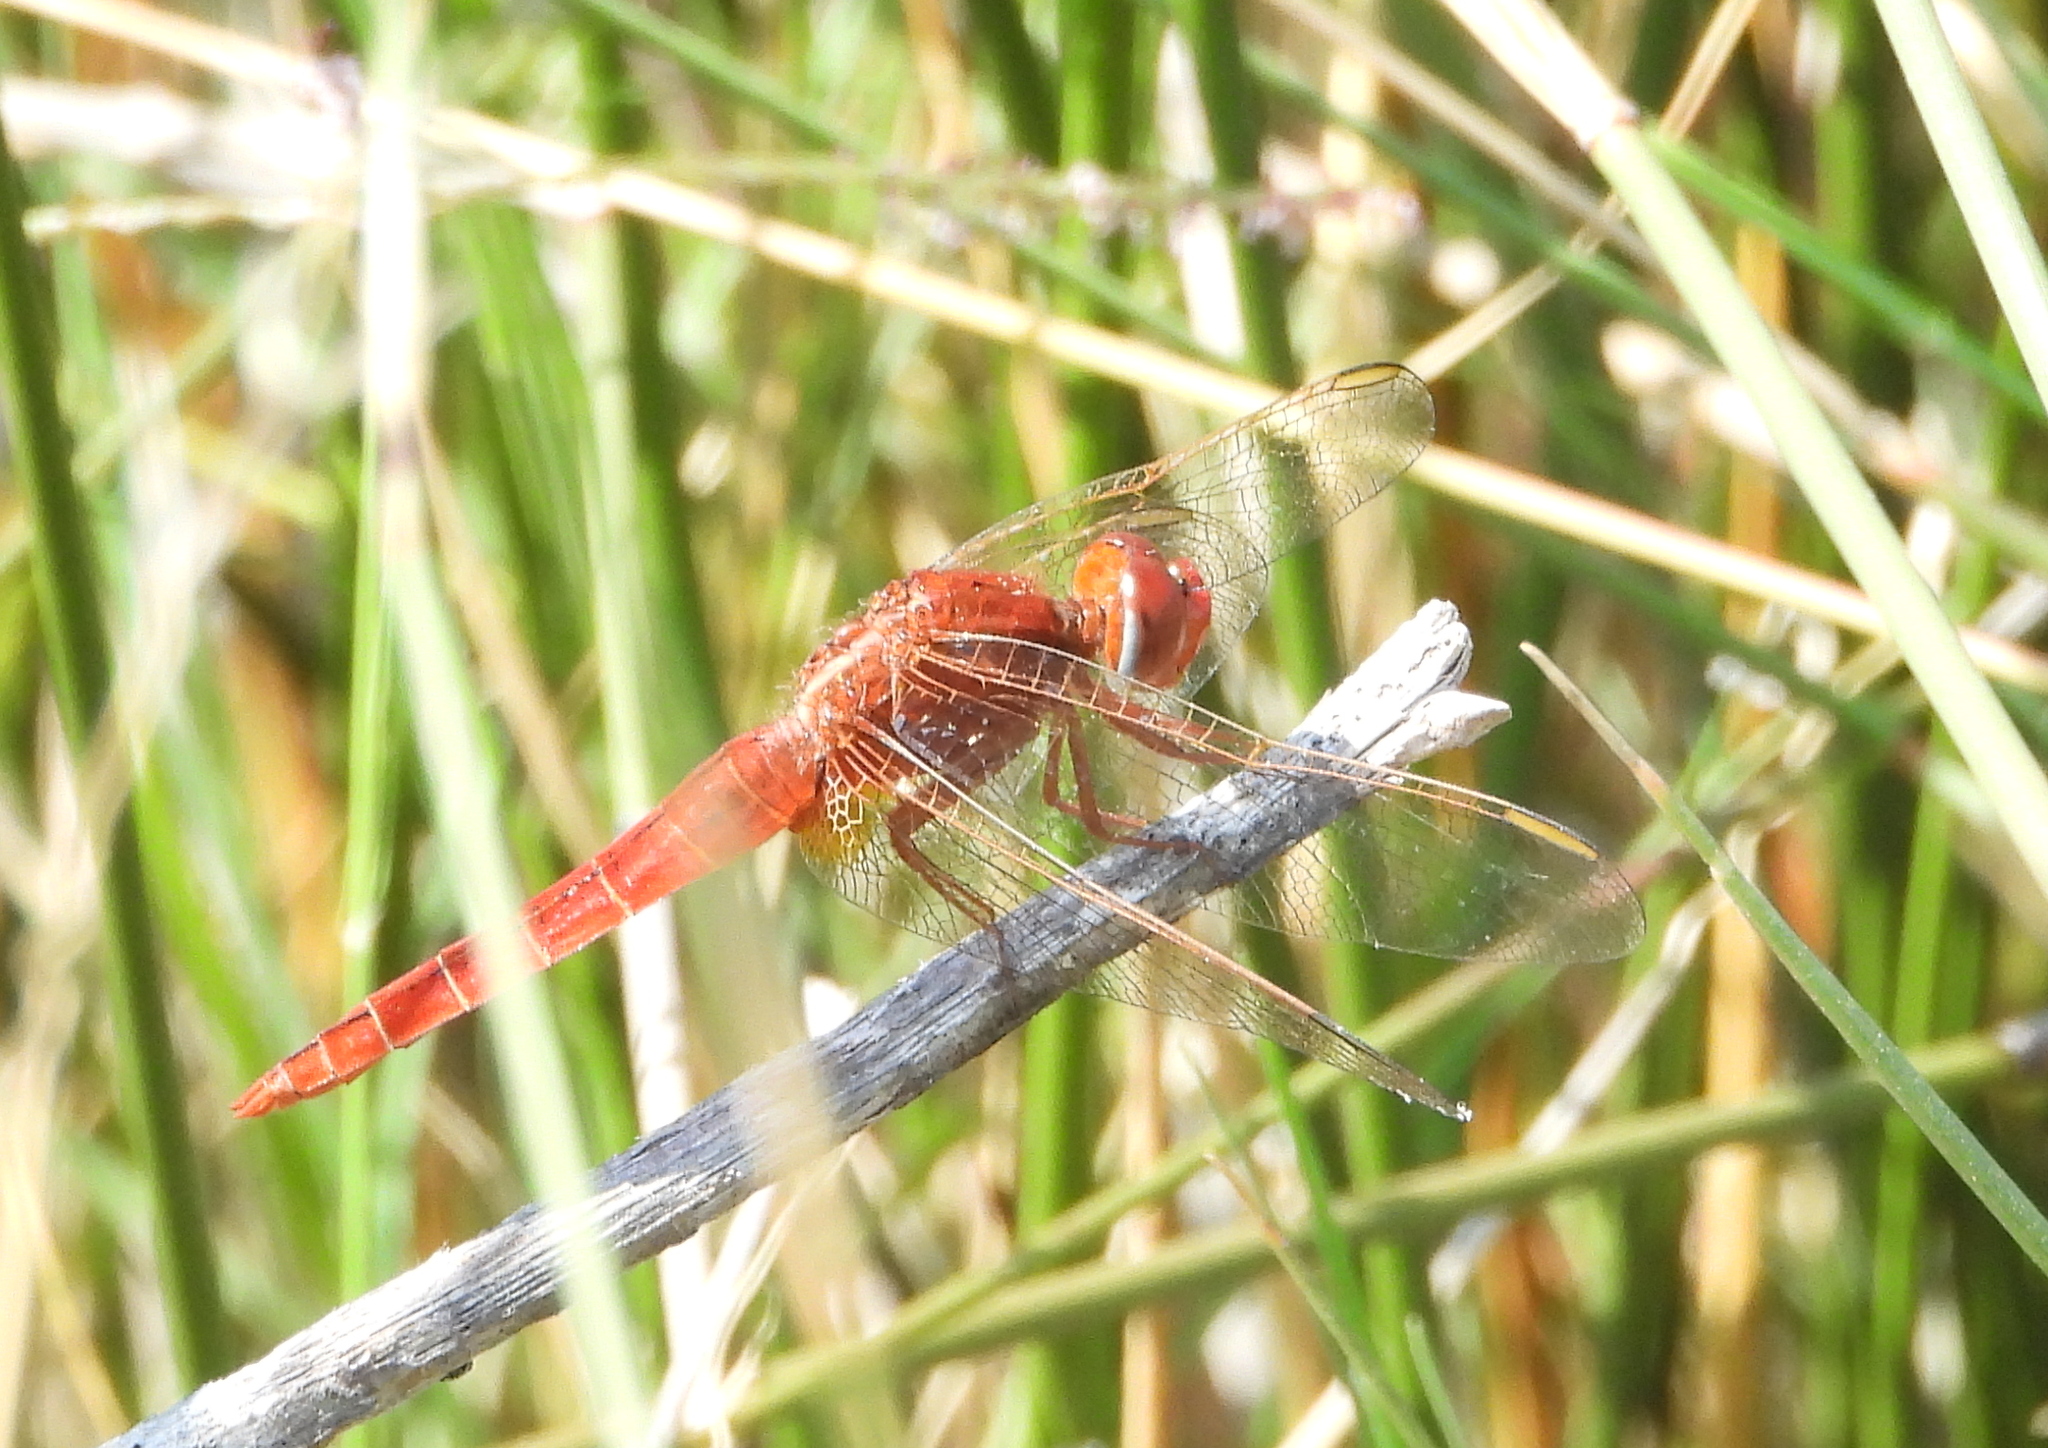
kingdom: Animalia
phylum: Arthropoda
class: Insecta
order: Odonata
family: Libellulidae
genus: Crocothemis
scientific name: Crocothemis erythraea
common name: Scarlet dragonfly
